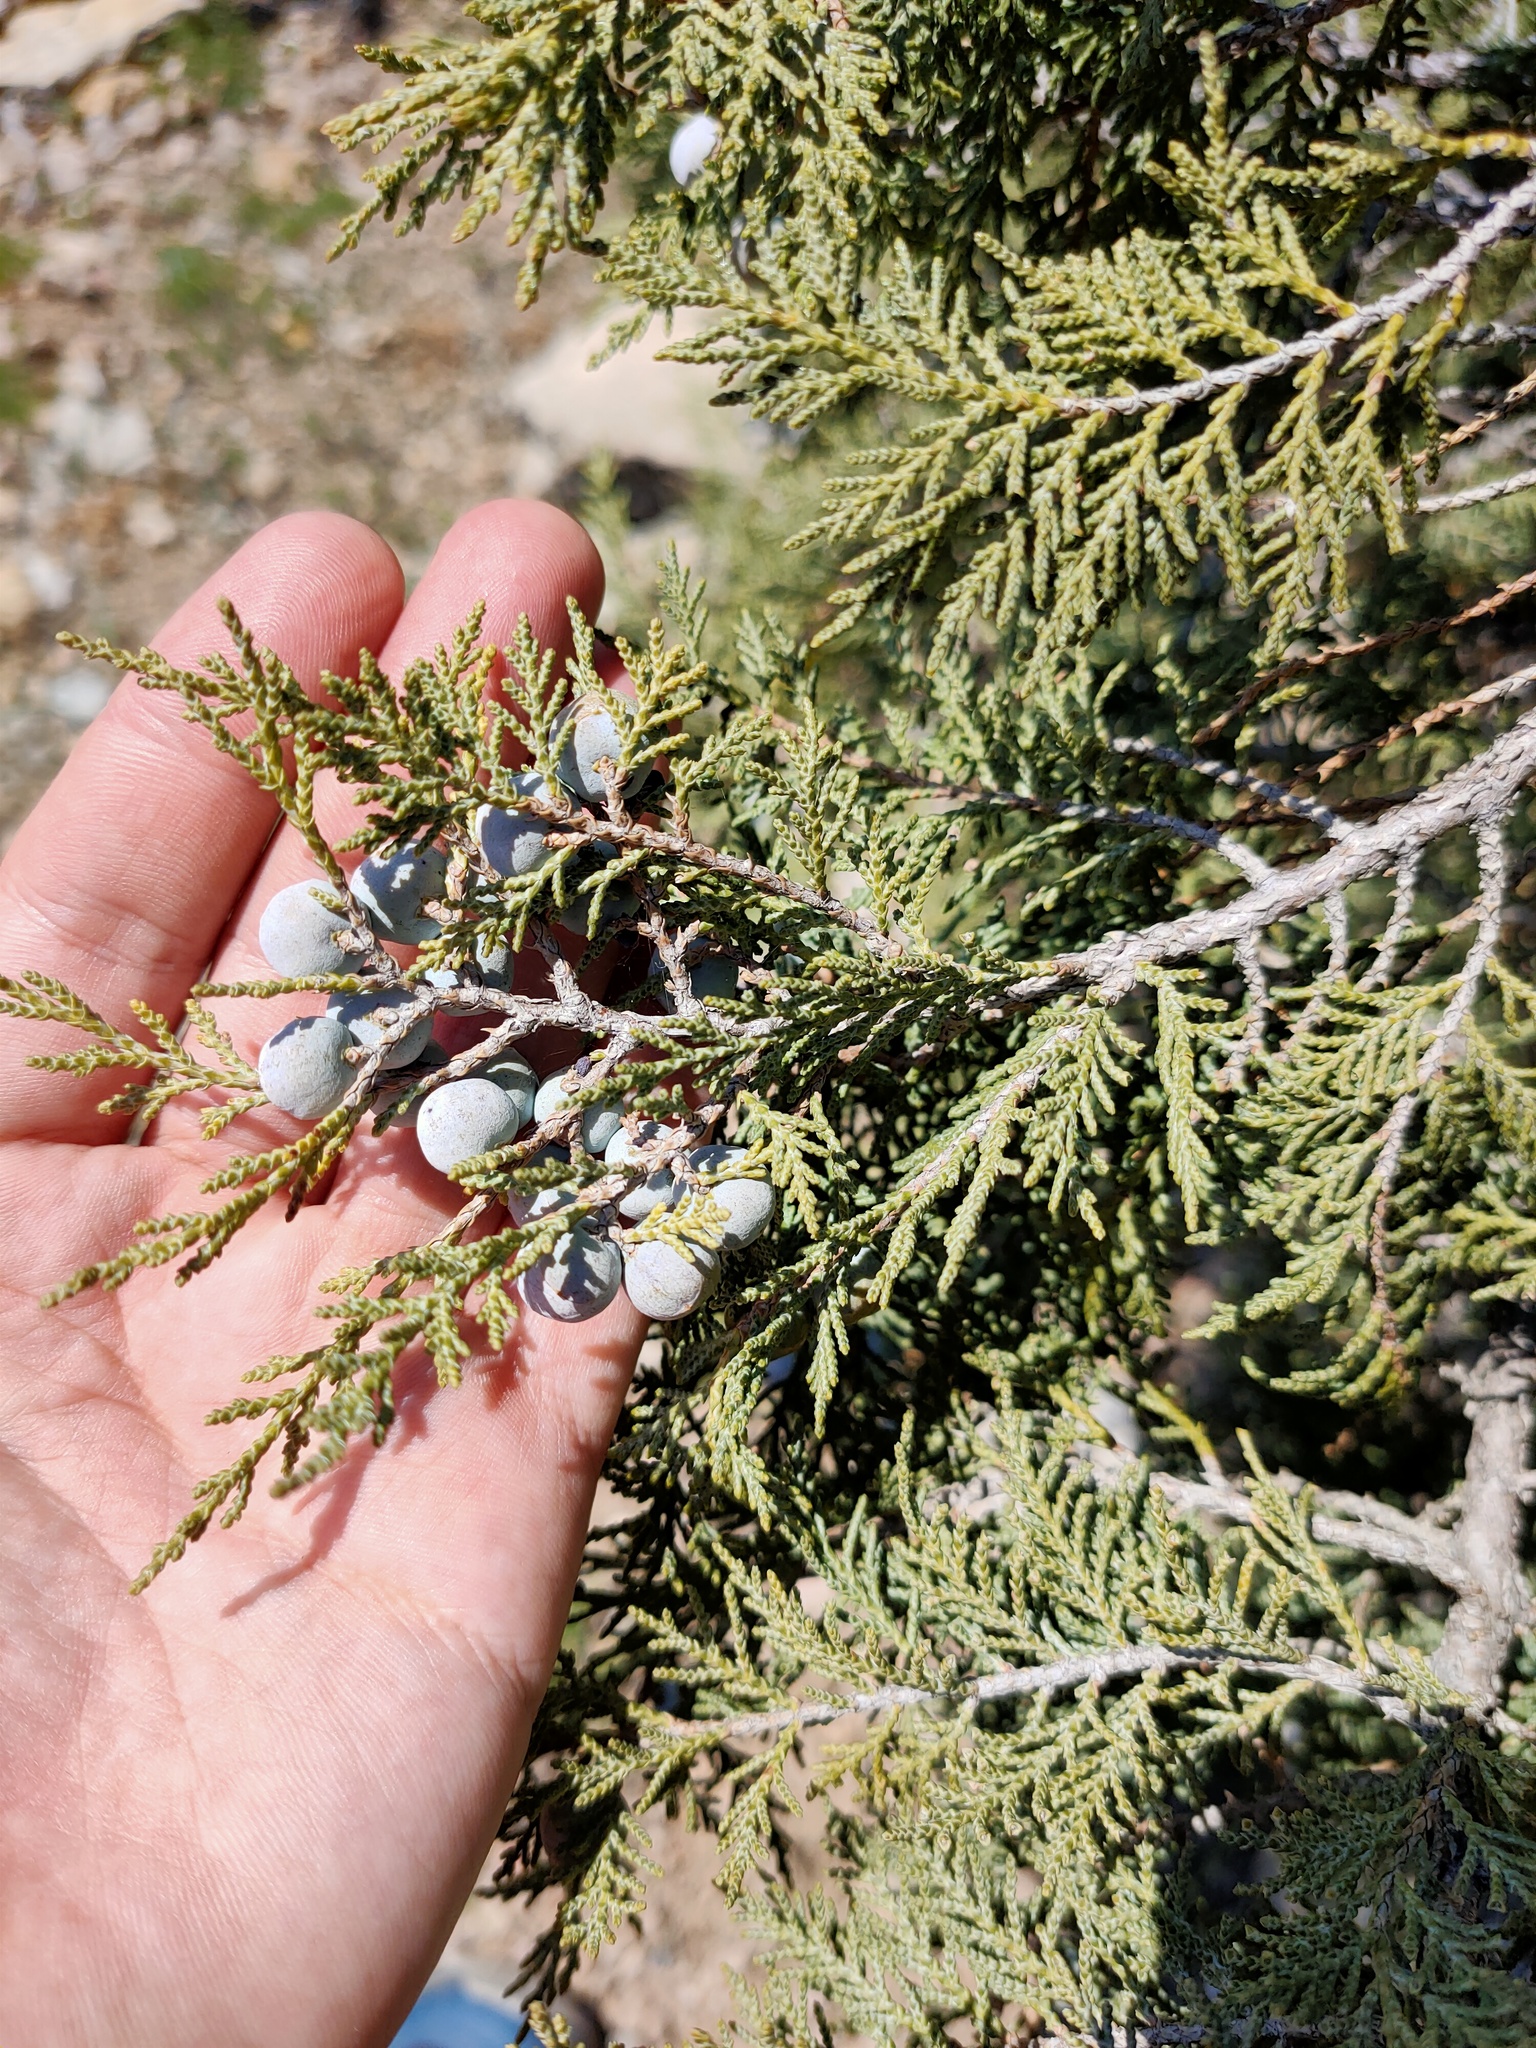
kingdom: Plantae
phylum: Tracheophyta
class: Pinopsida
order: Pinales
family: Cupressaceae
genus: Juniperus
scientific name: Juniperus excelsa
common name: Crimean juniper
